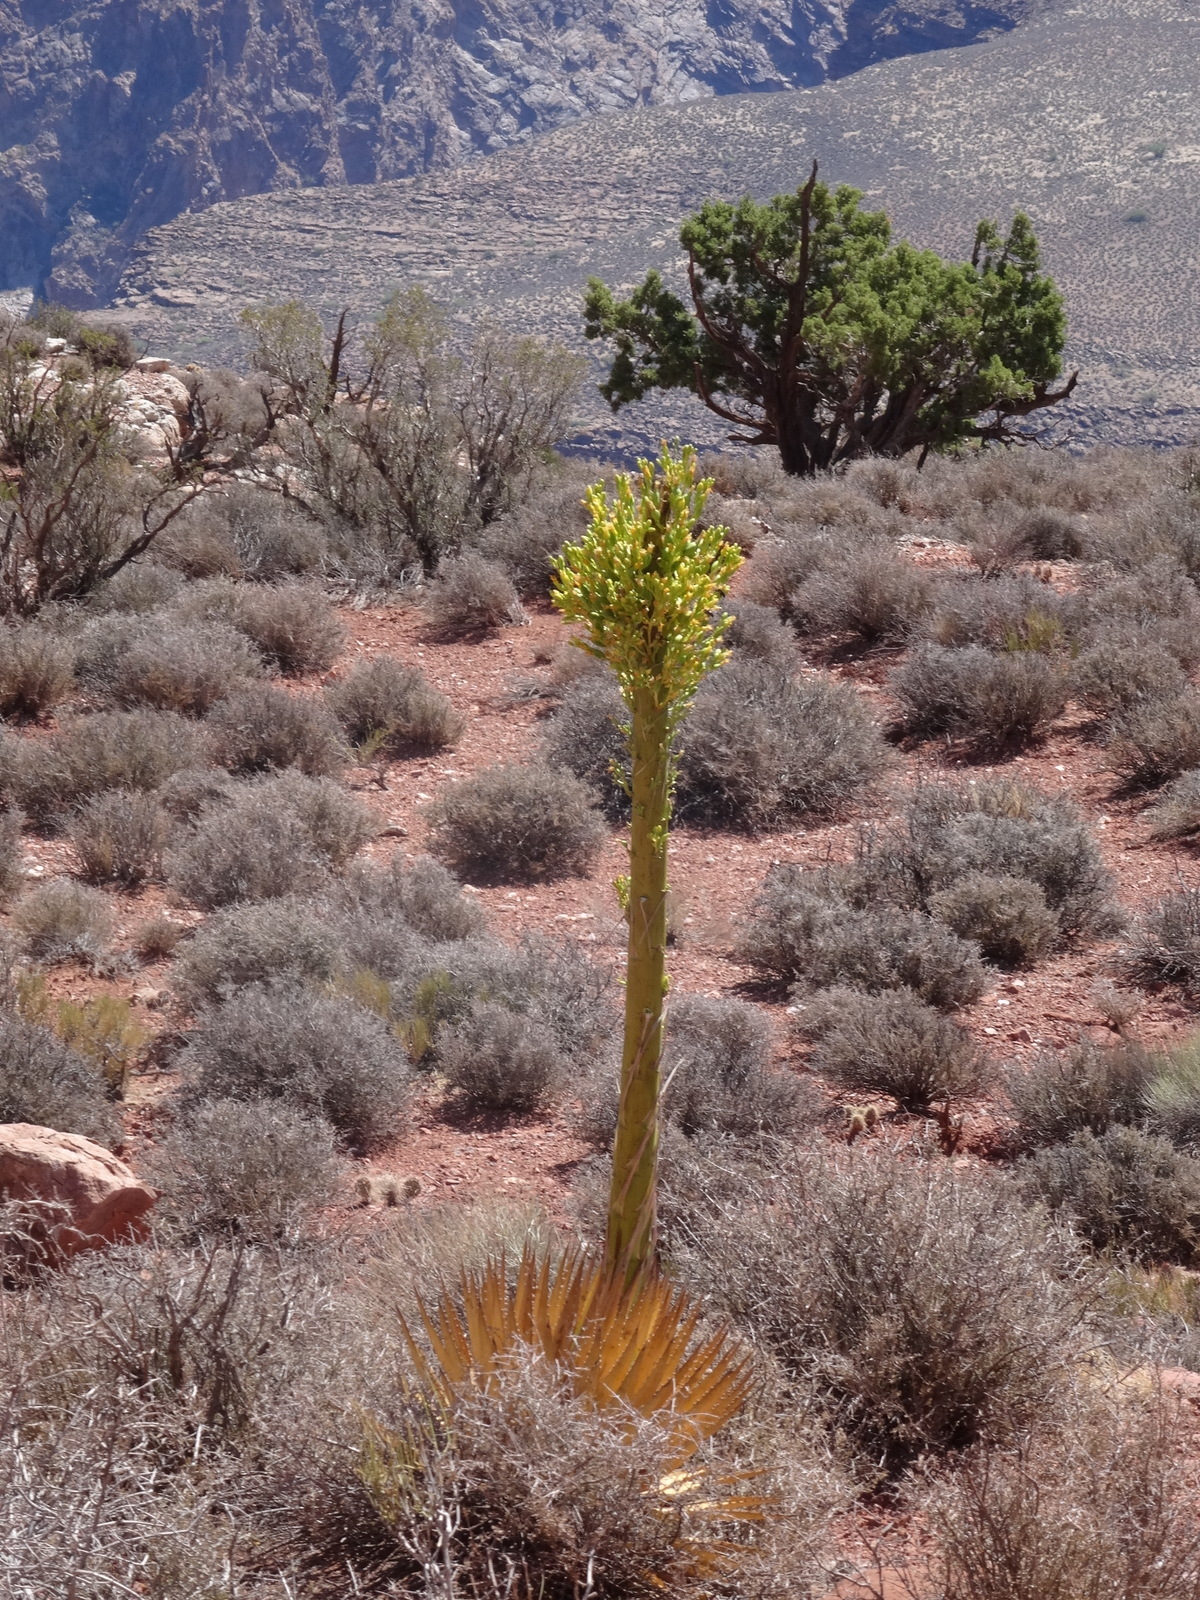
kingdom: Plantae
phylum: Tracheophyta
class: Liliopsida
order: Asparagales
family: Asparagaceae
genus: Agave
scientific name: Agave utahensis
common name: Utah agave
